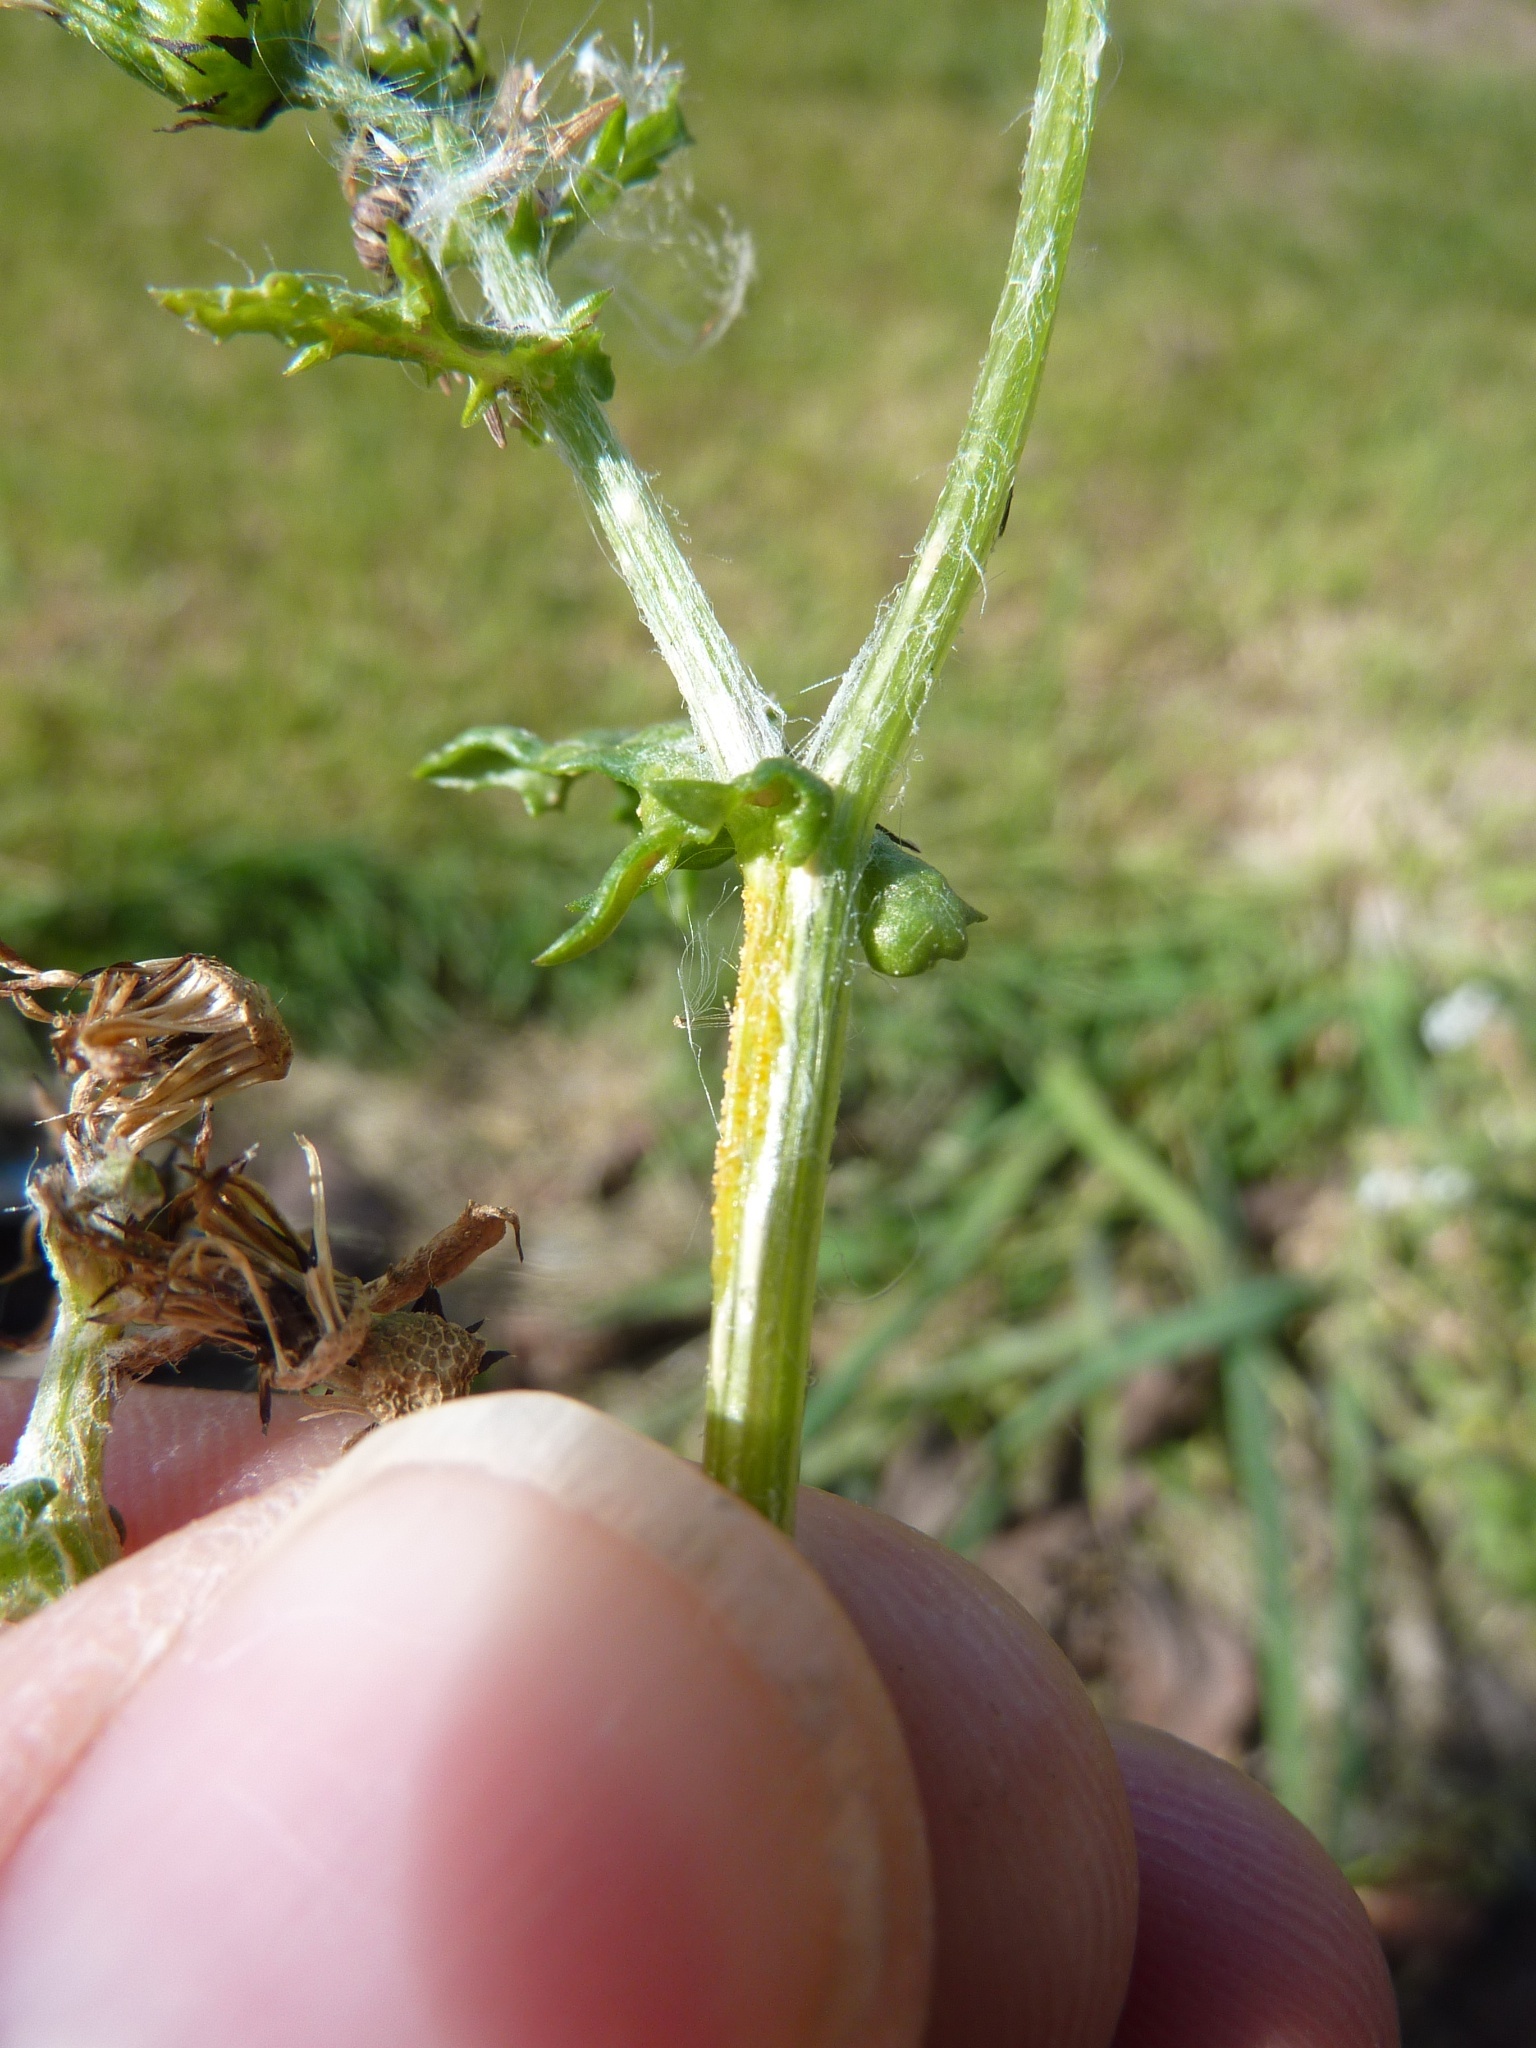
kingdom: Plantae
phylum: Tracheophyta
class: Magnoliopsida
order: Asterales
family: Asteraceae
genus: Senecio
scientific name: Senecio vulgaris
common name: Old-man-in-the-spring
